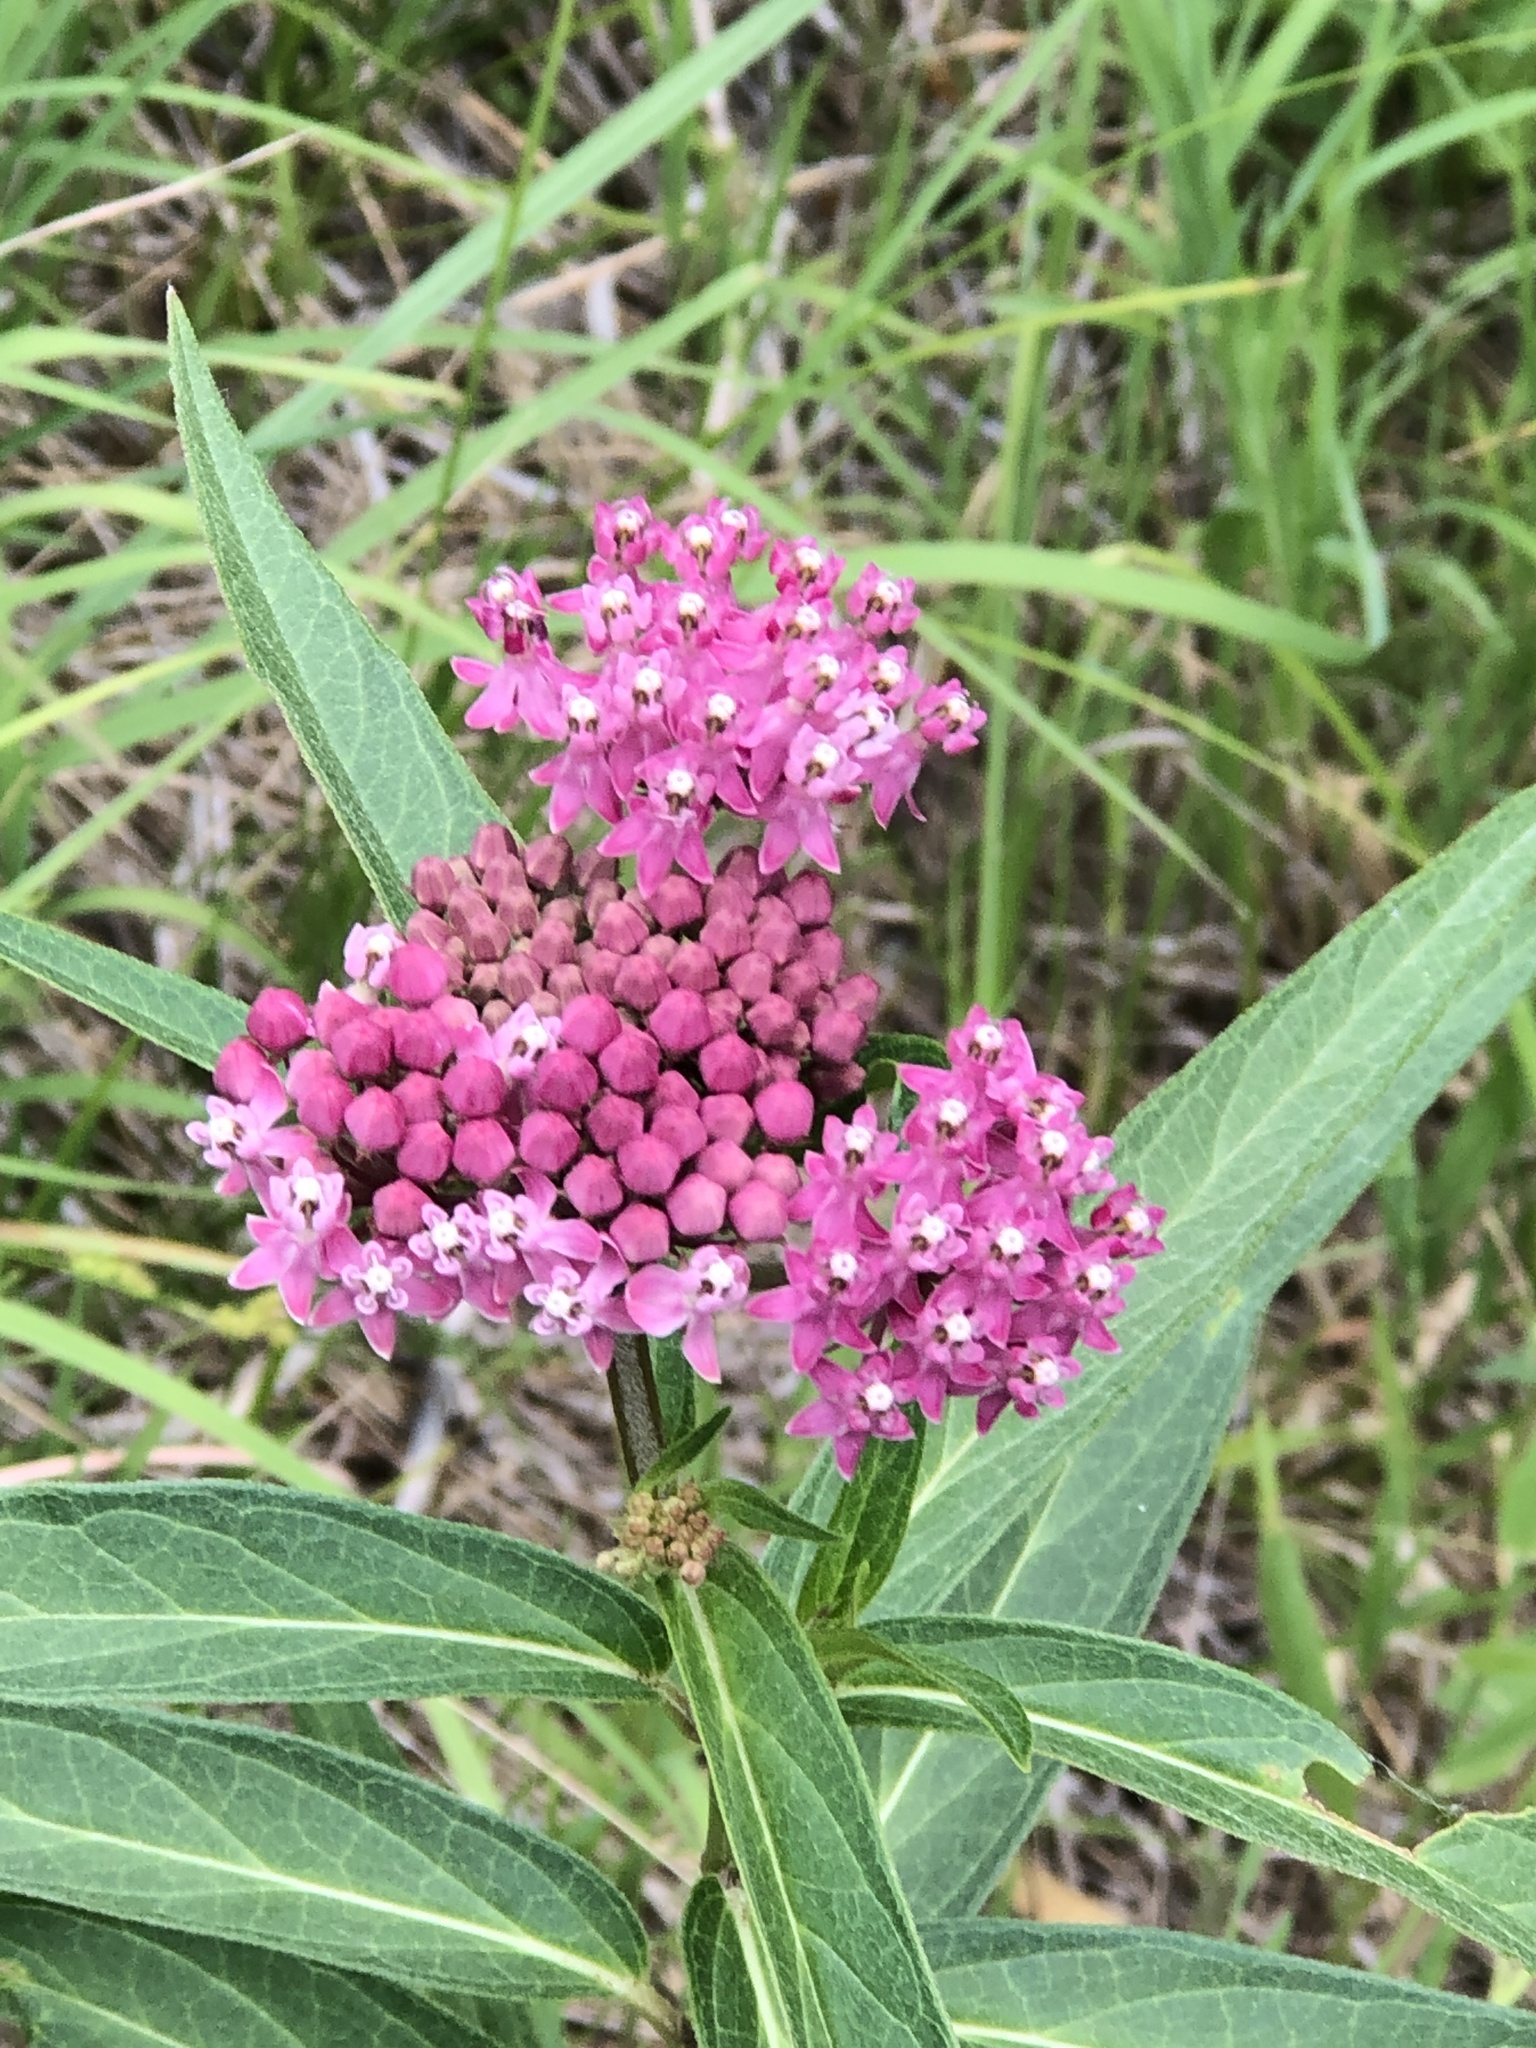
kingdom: Plantae
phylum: Tracheophyta
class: Magnoliopsida
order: Gentianales
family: Apocynaceae
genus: Asclepias
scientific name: Asclepias incarnata
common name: Swamp milkweed
